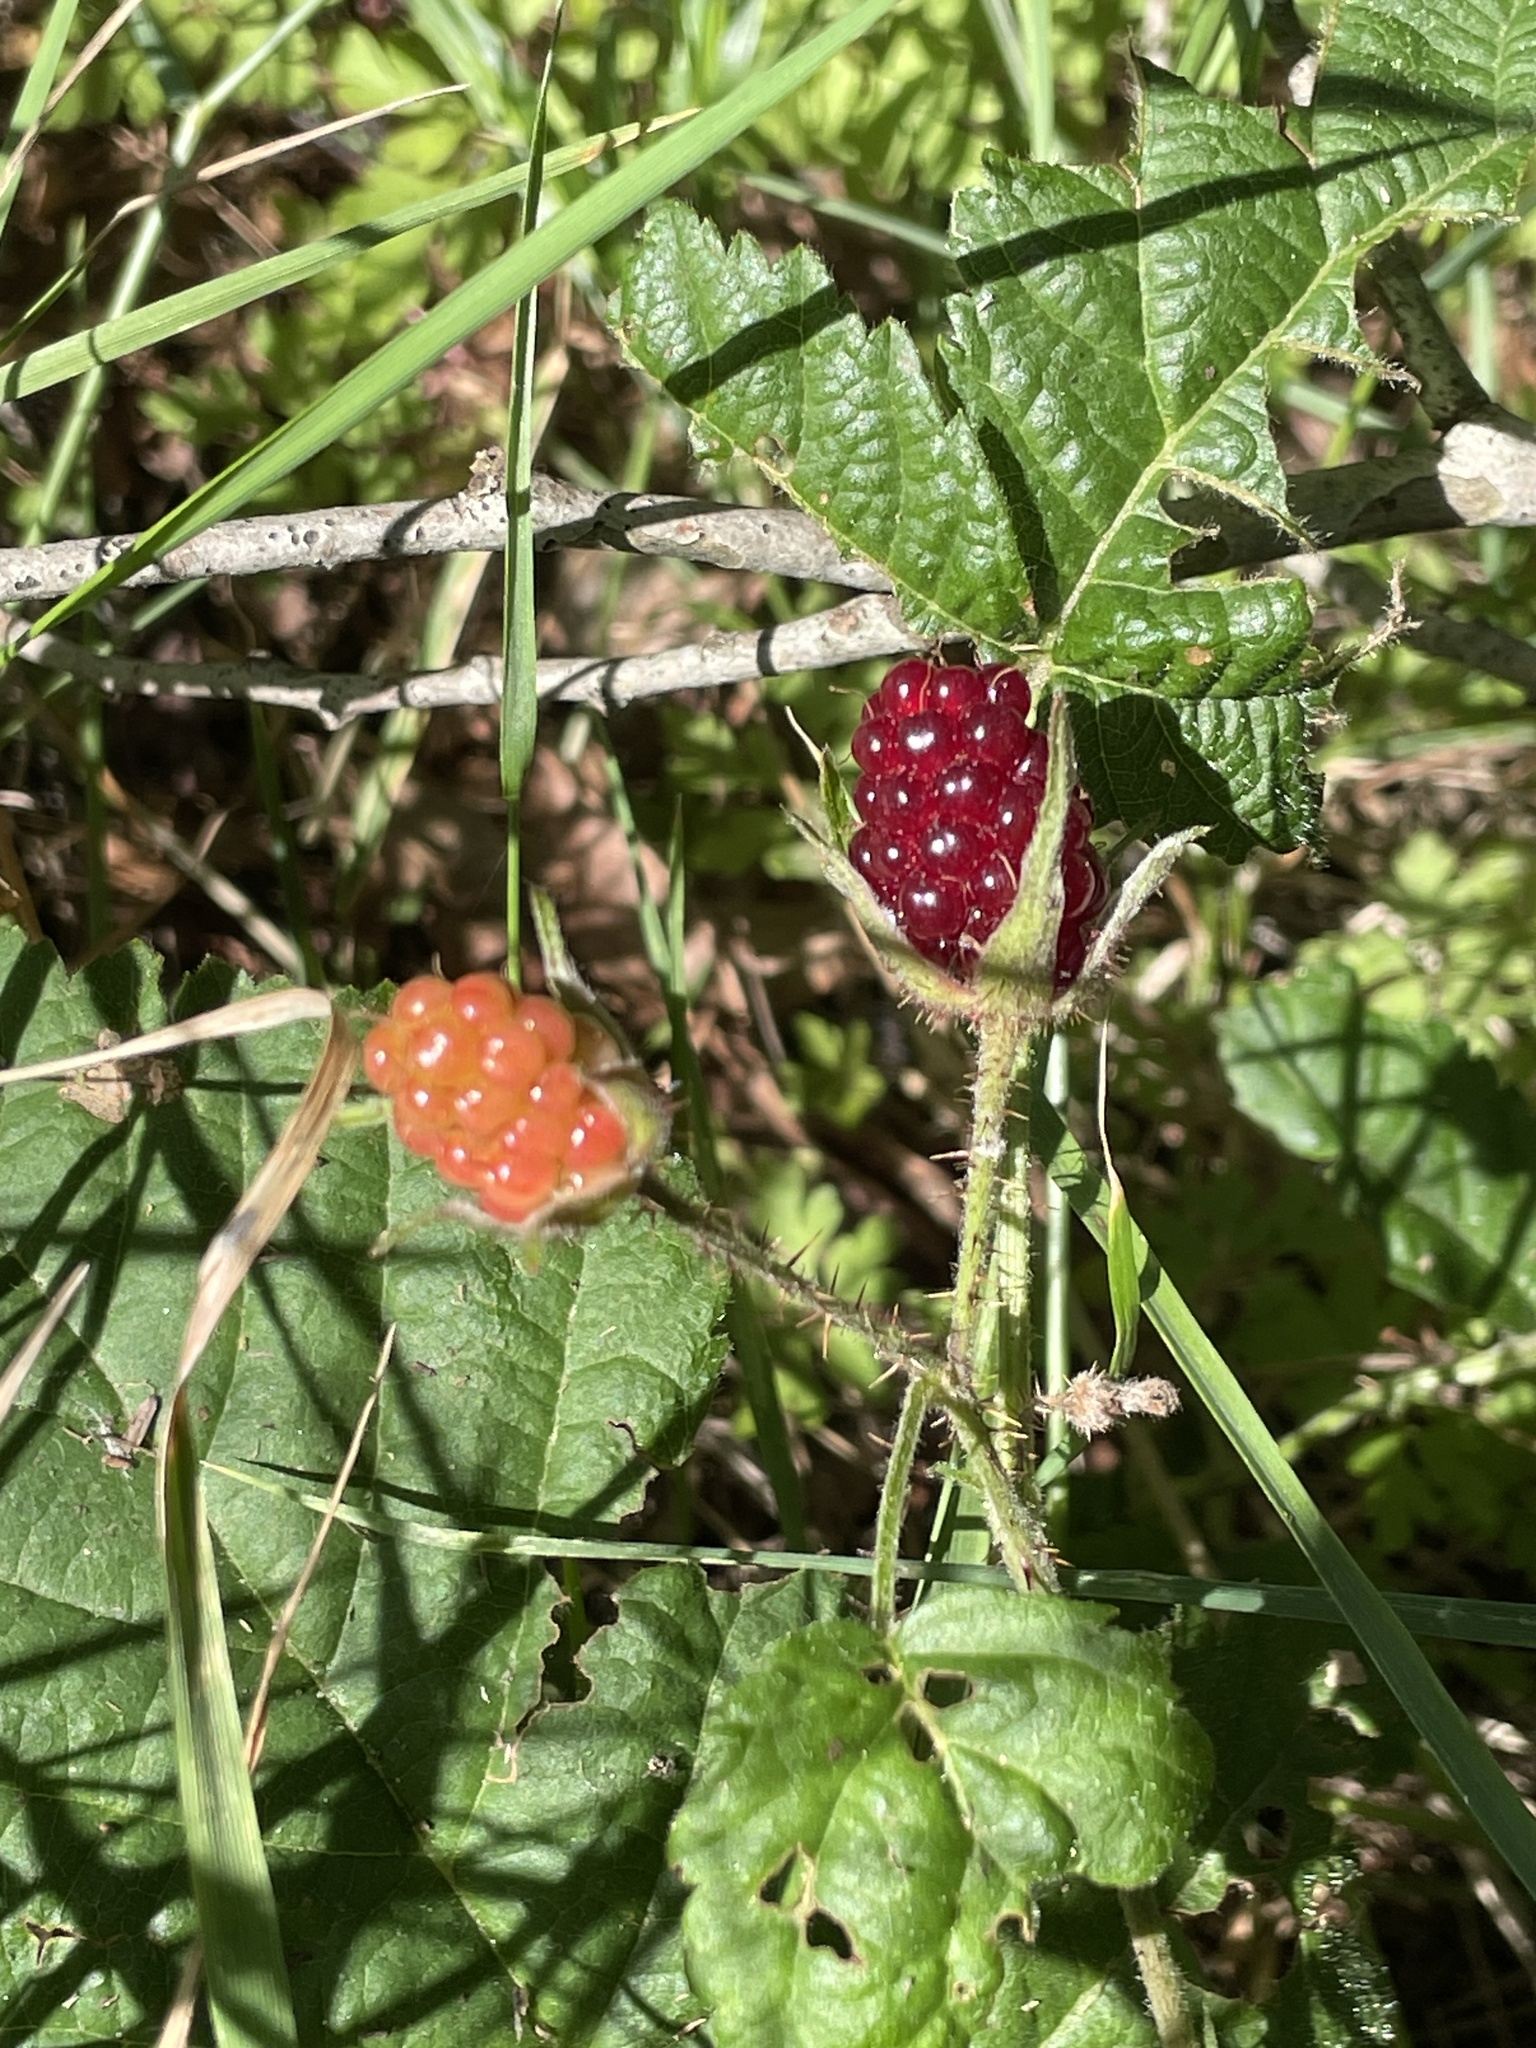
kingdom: Plantae
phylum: Tracheophyta
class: Magnoliopsida
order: Rosales
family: Rosaceae
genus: Rubus
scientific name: Rubus ursinus
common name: Pacific blackberry
